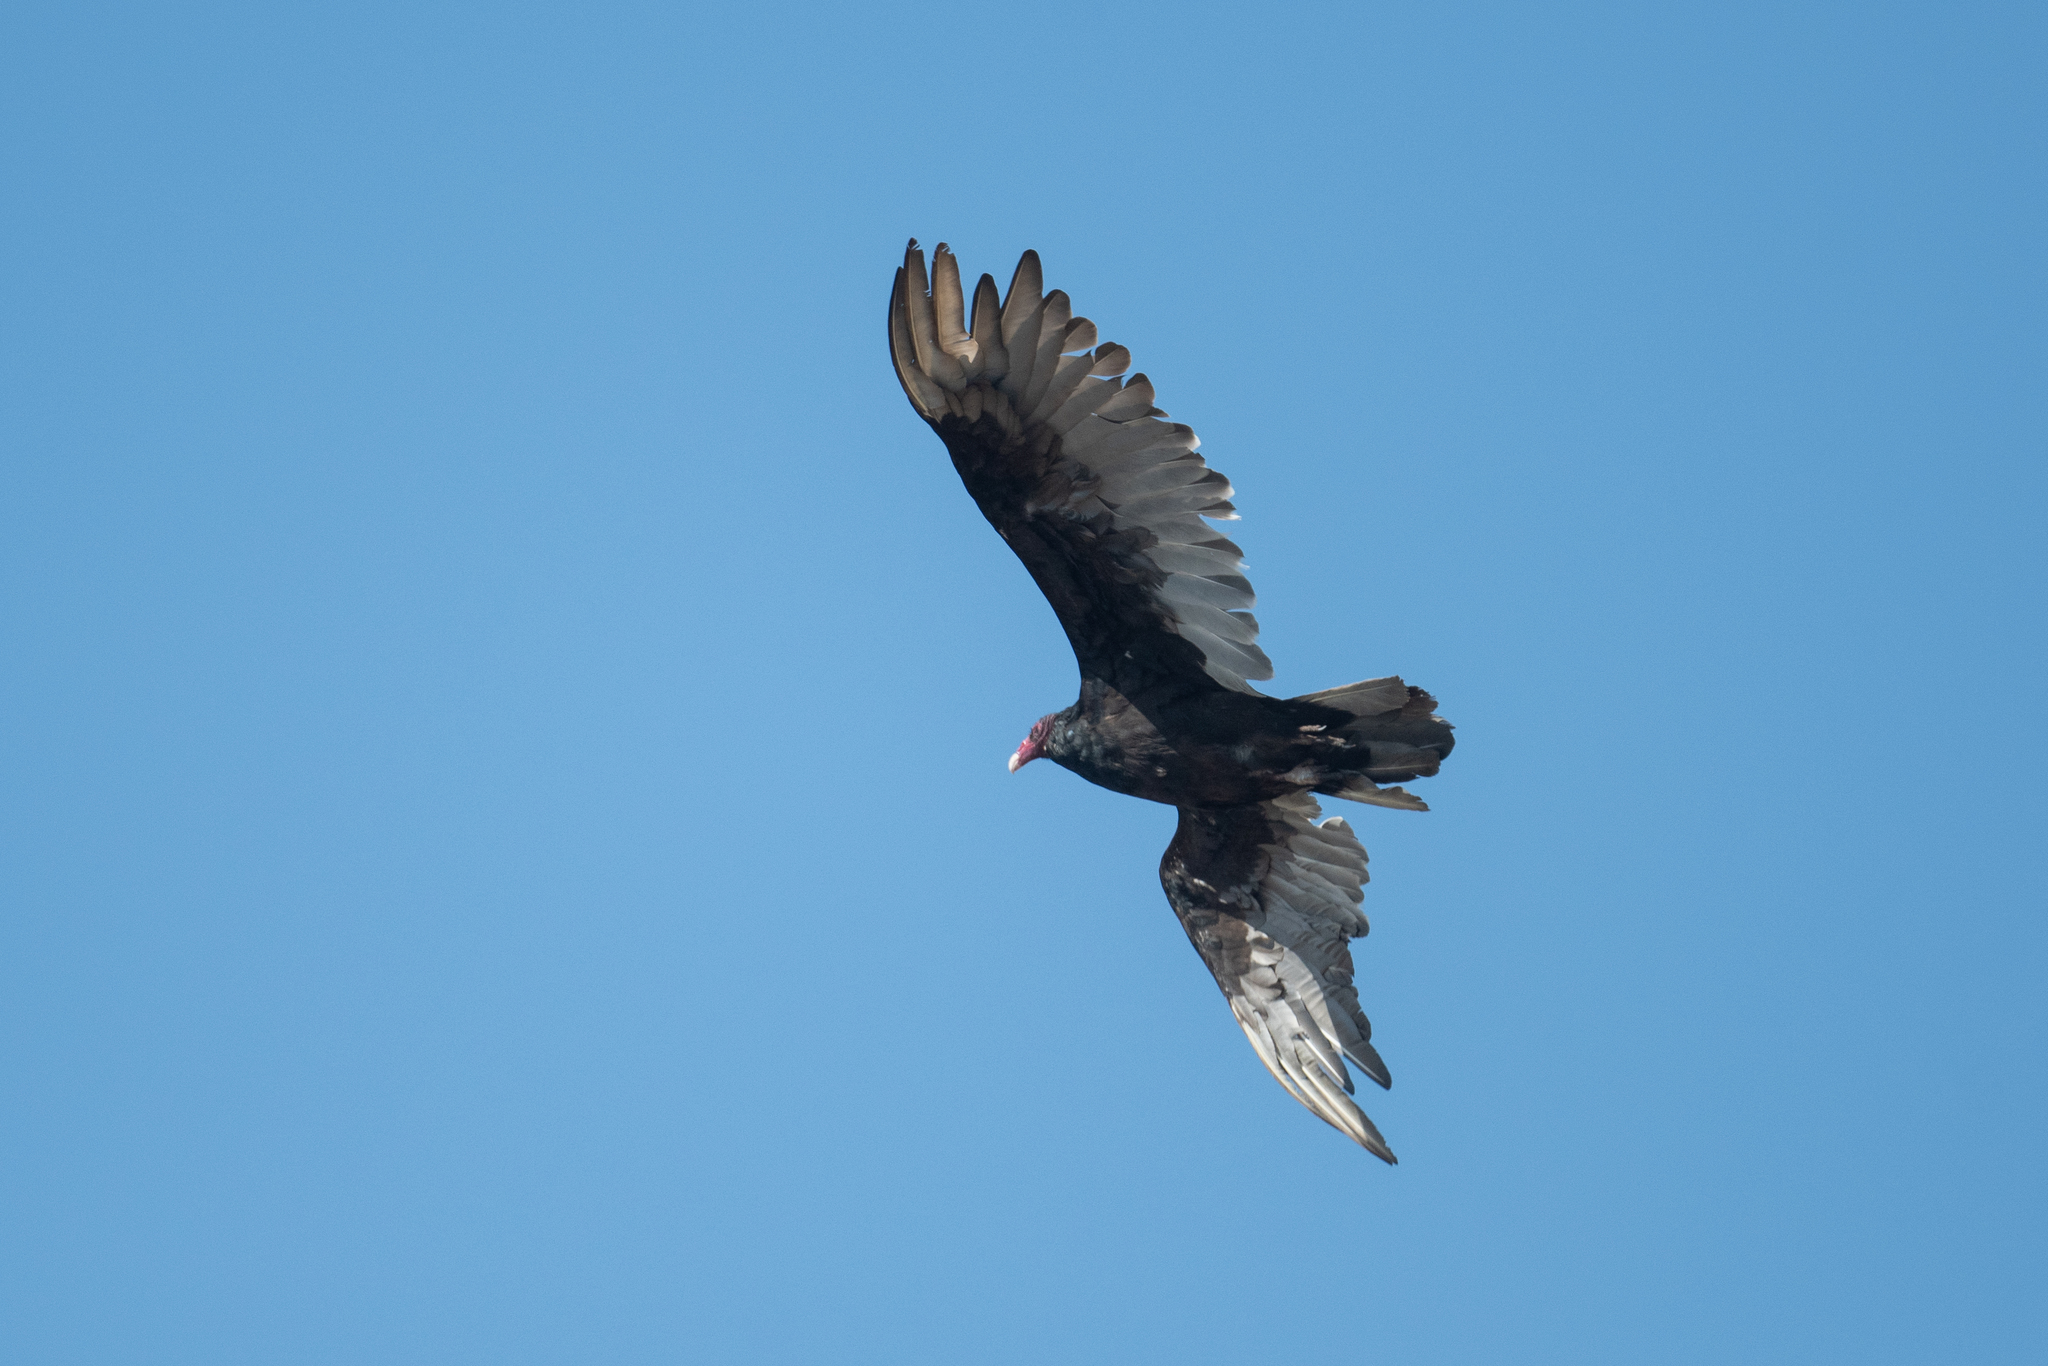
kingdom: Animalia
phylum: Chordata
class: Aves
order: Accipitriformes
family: Cathartidae
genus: Cathartes
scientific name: Cathartes aura
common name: Turkey vulture
